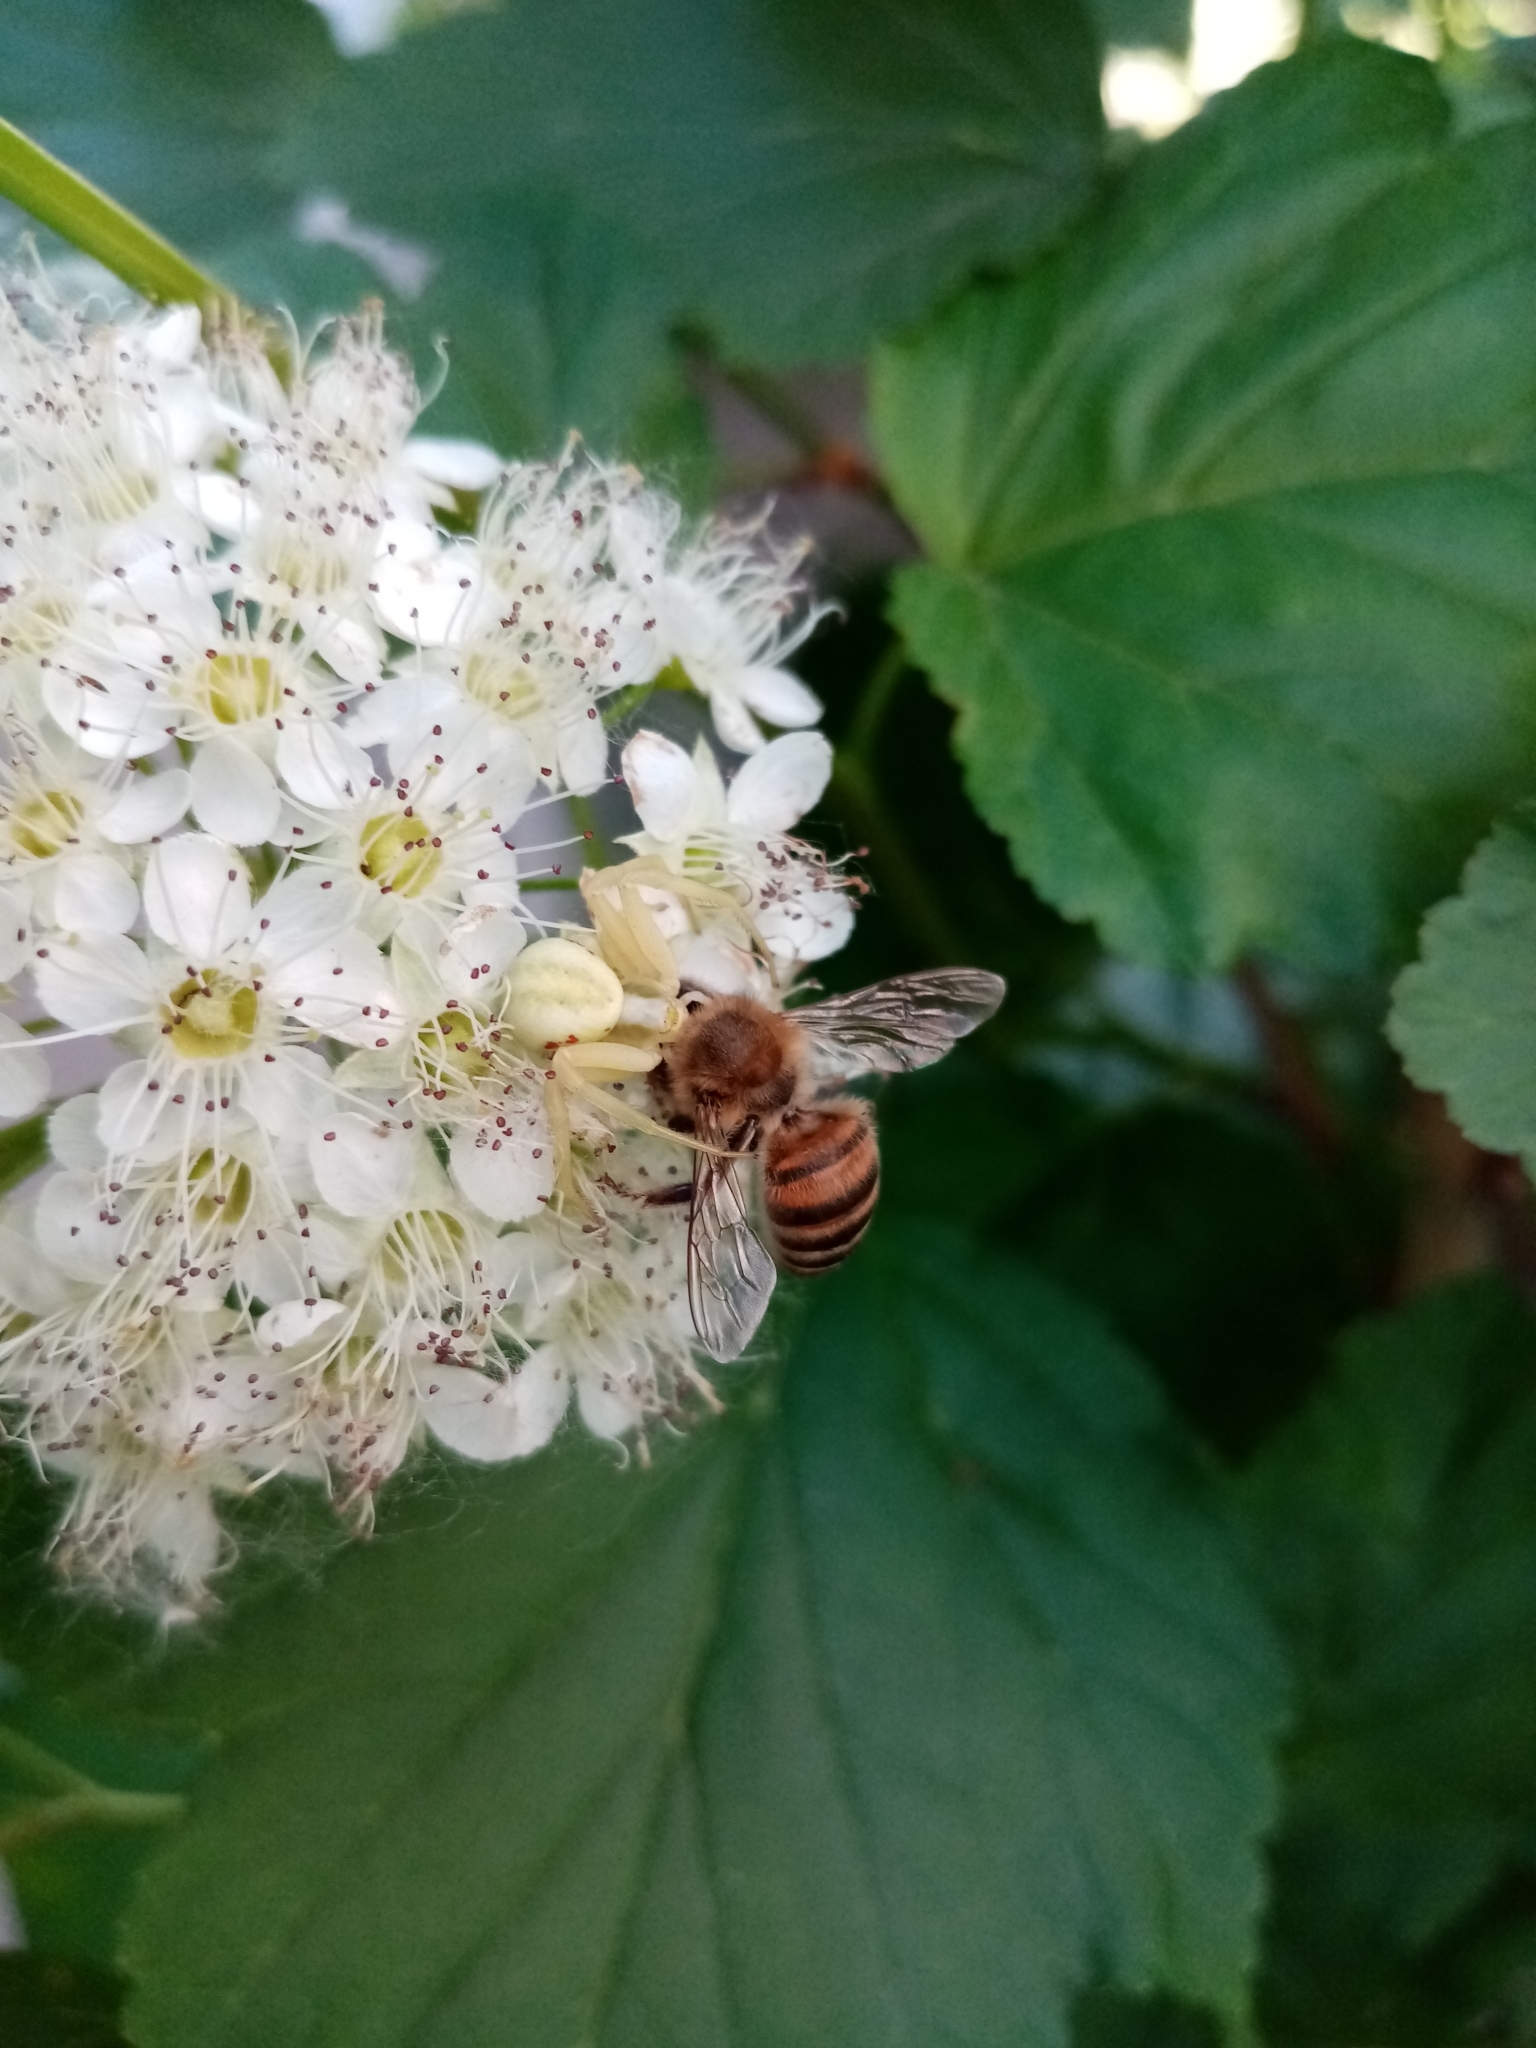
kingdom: Animalia
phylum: Arthropoda
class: Arachnida
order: Araneae
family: Thomisidae
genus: Misumena
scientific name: Misumena vatia
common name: Goldenrod crab spider
